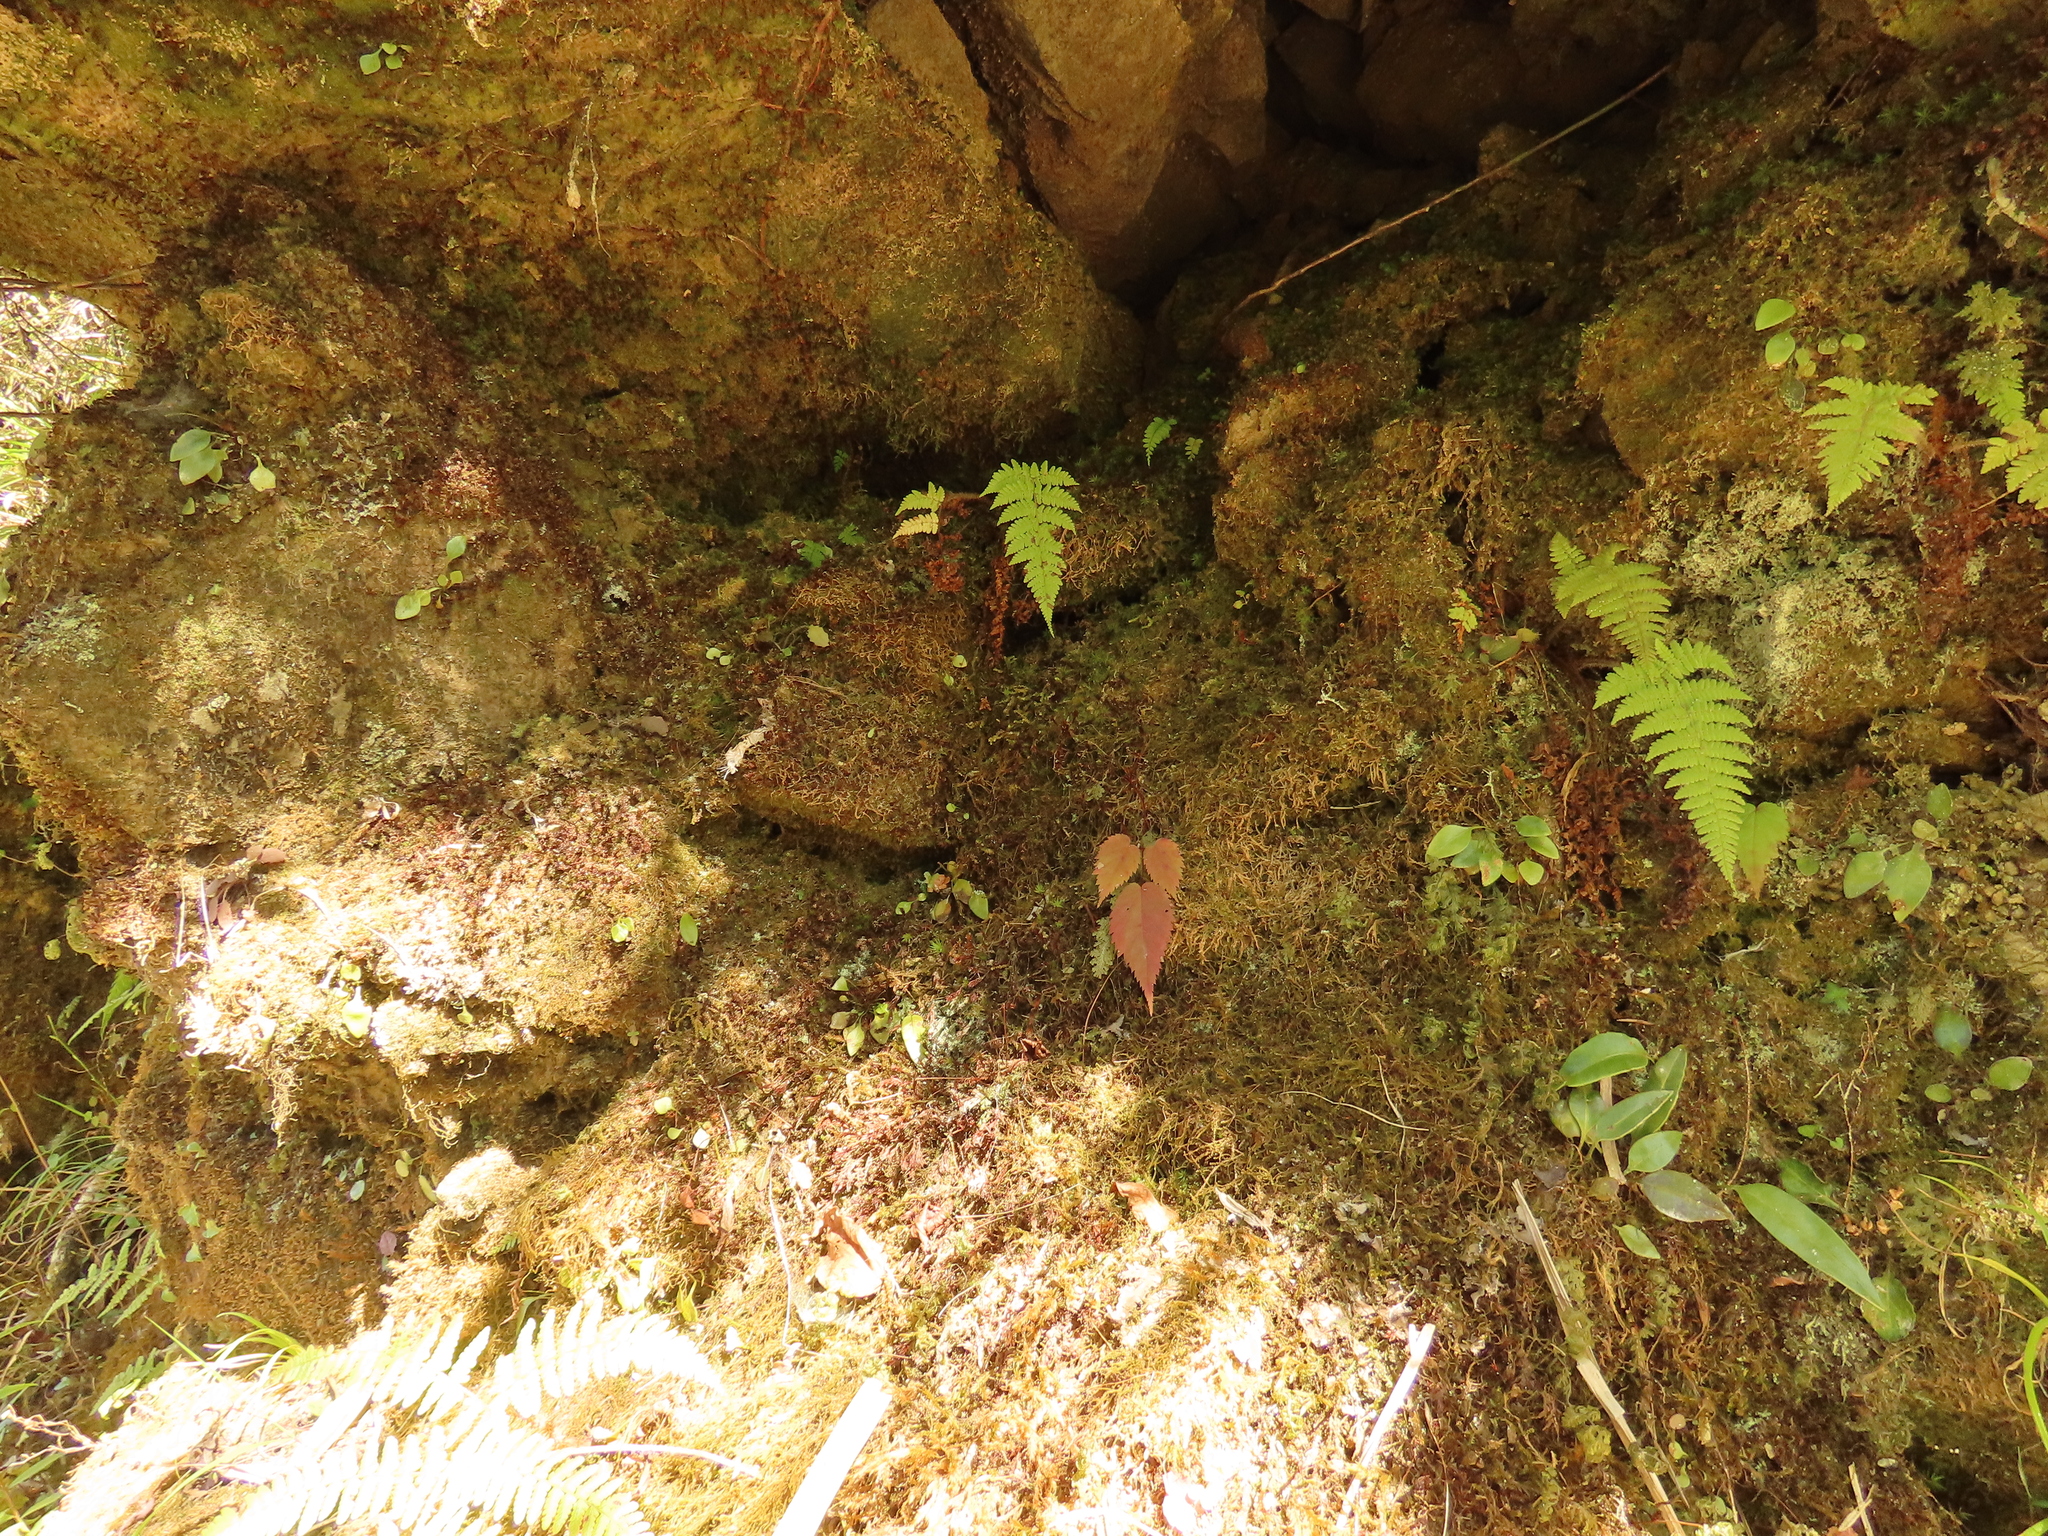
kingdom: Plantae
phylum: Tracheophyta
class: Polypodiopsida
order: Polypodiales
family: Dryopteridaceae
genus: Elaphoglossum
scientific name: Elaphoglossum angulatum
